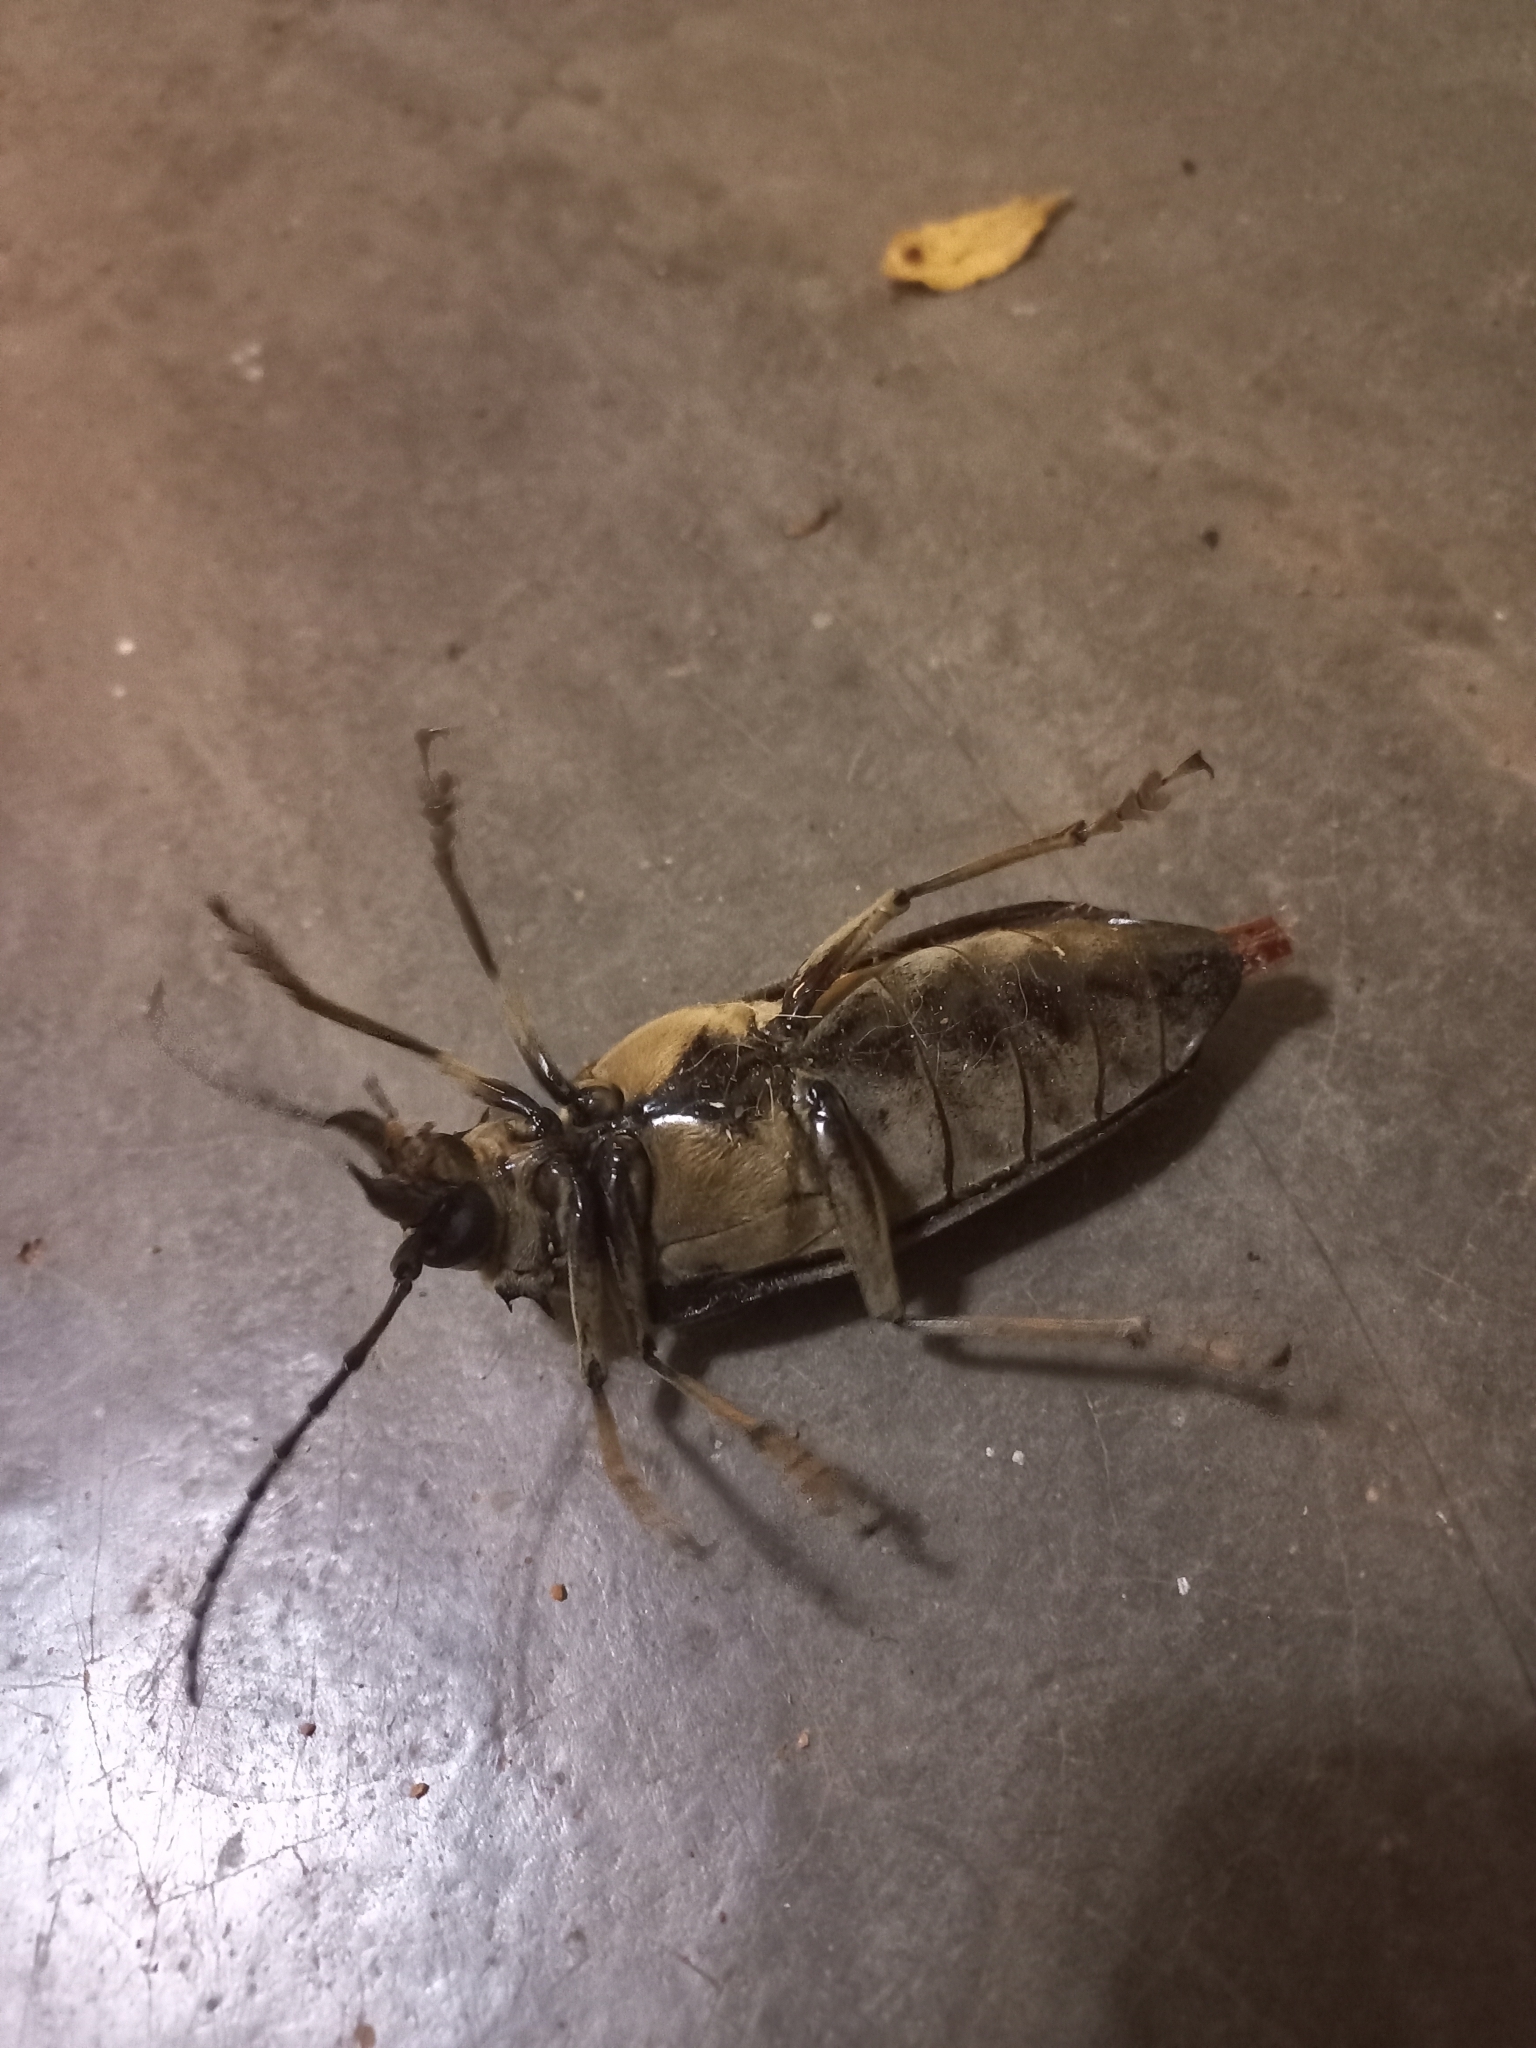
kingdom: Animalia
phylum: Arthropoda
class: Insecta
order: Coleoptera
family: Cerambycidae
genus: Tithoes
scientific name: Tithoes confinis
